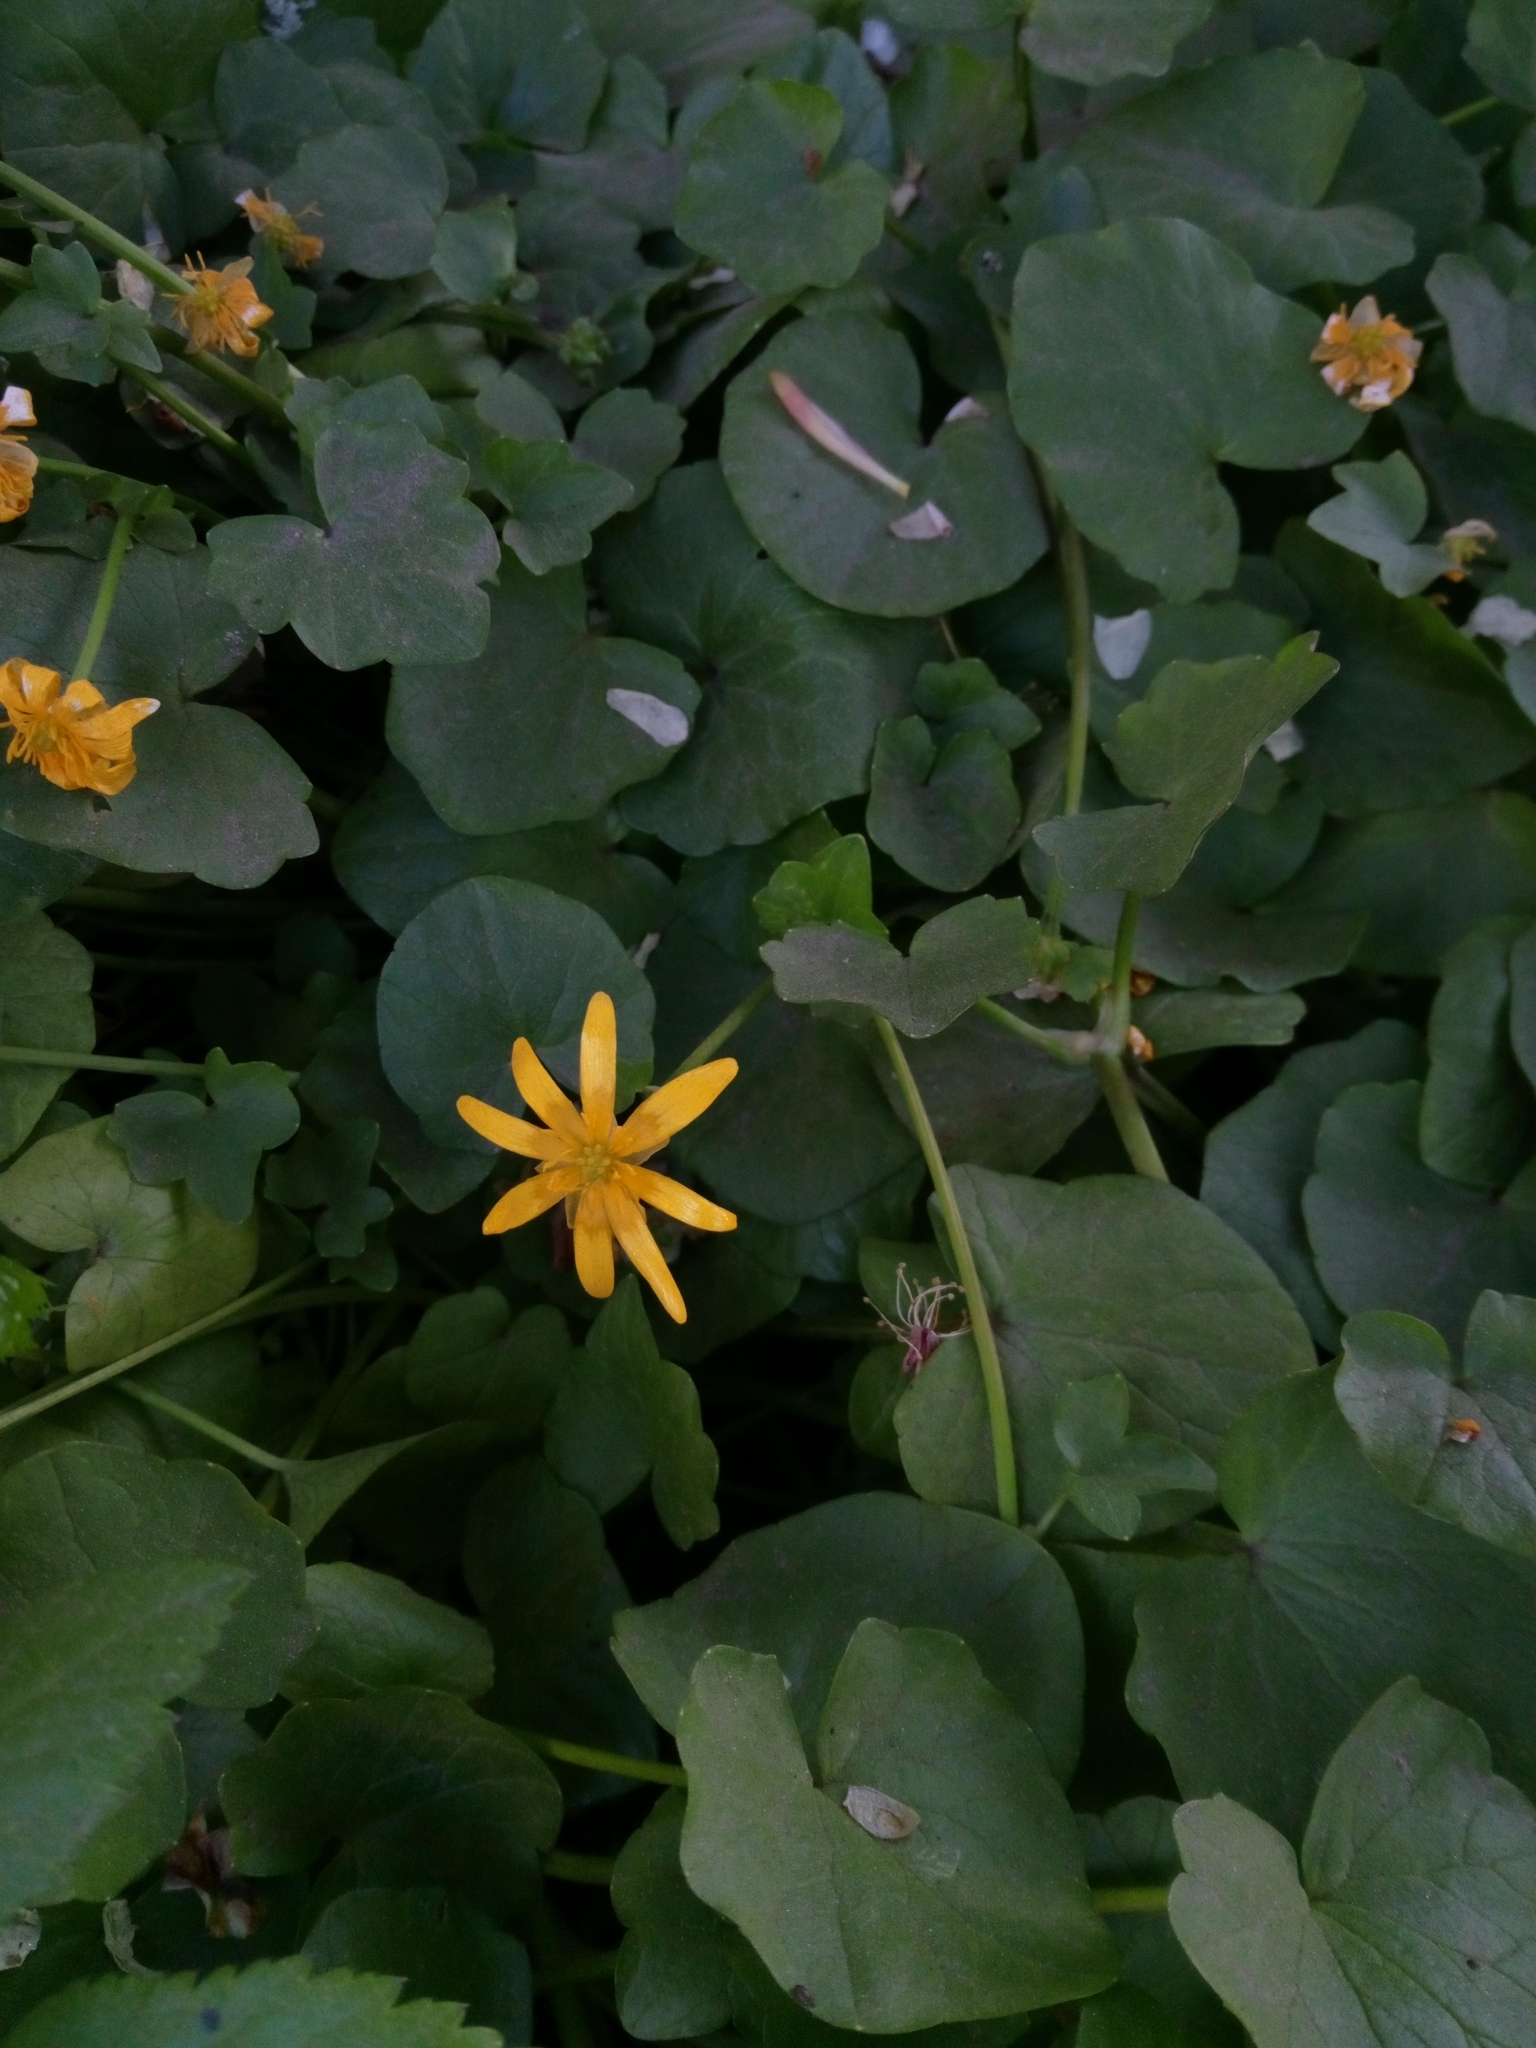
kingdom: Plantae
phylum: Tracheophyta
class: Magnoliopsida
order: Ranunculales
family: Ranunculaceae
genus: Ficaria
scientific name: Ficaria verna
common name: Lesser celandine
